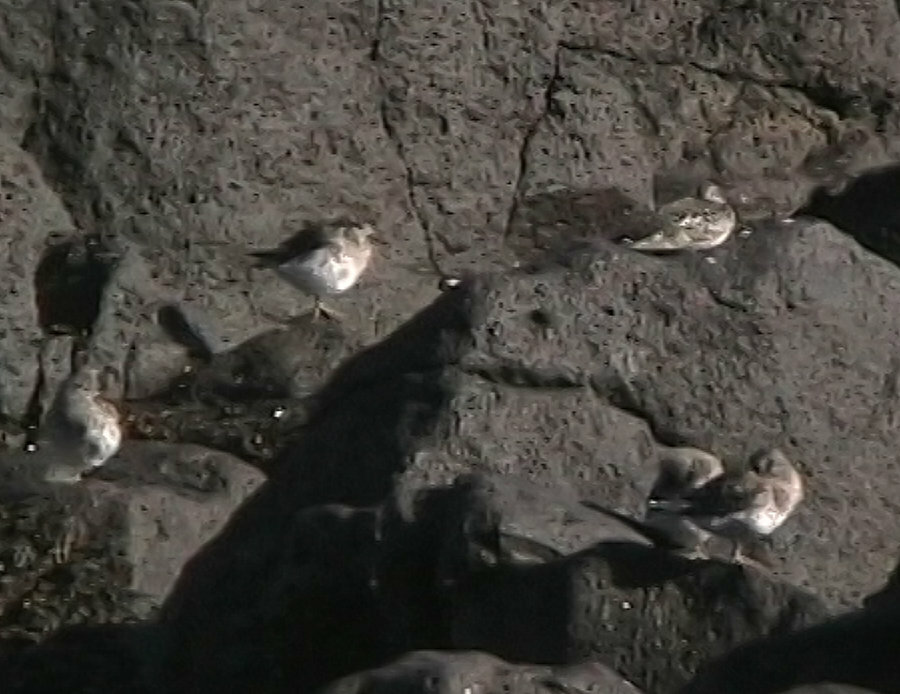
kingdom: Animalia
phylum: Chordata
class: Aves
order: Charadriiformes
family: Scolopacidae
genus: Calidris
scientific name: Calidris maritima
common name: Purple sandpiper
